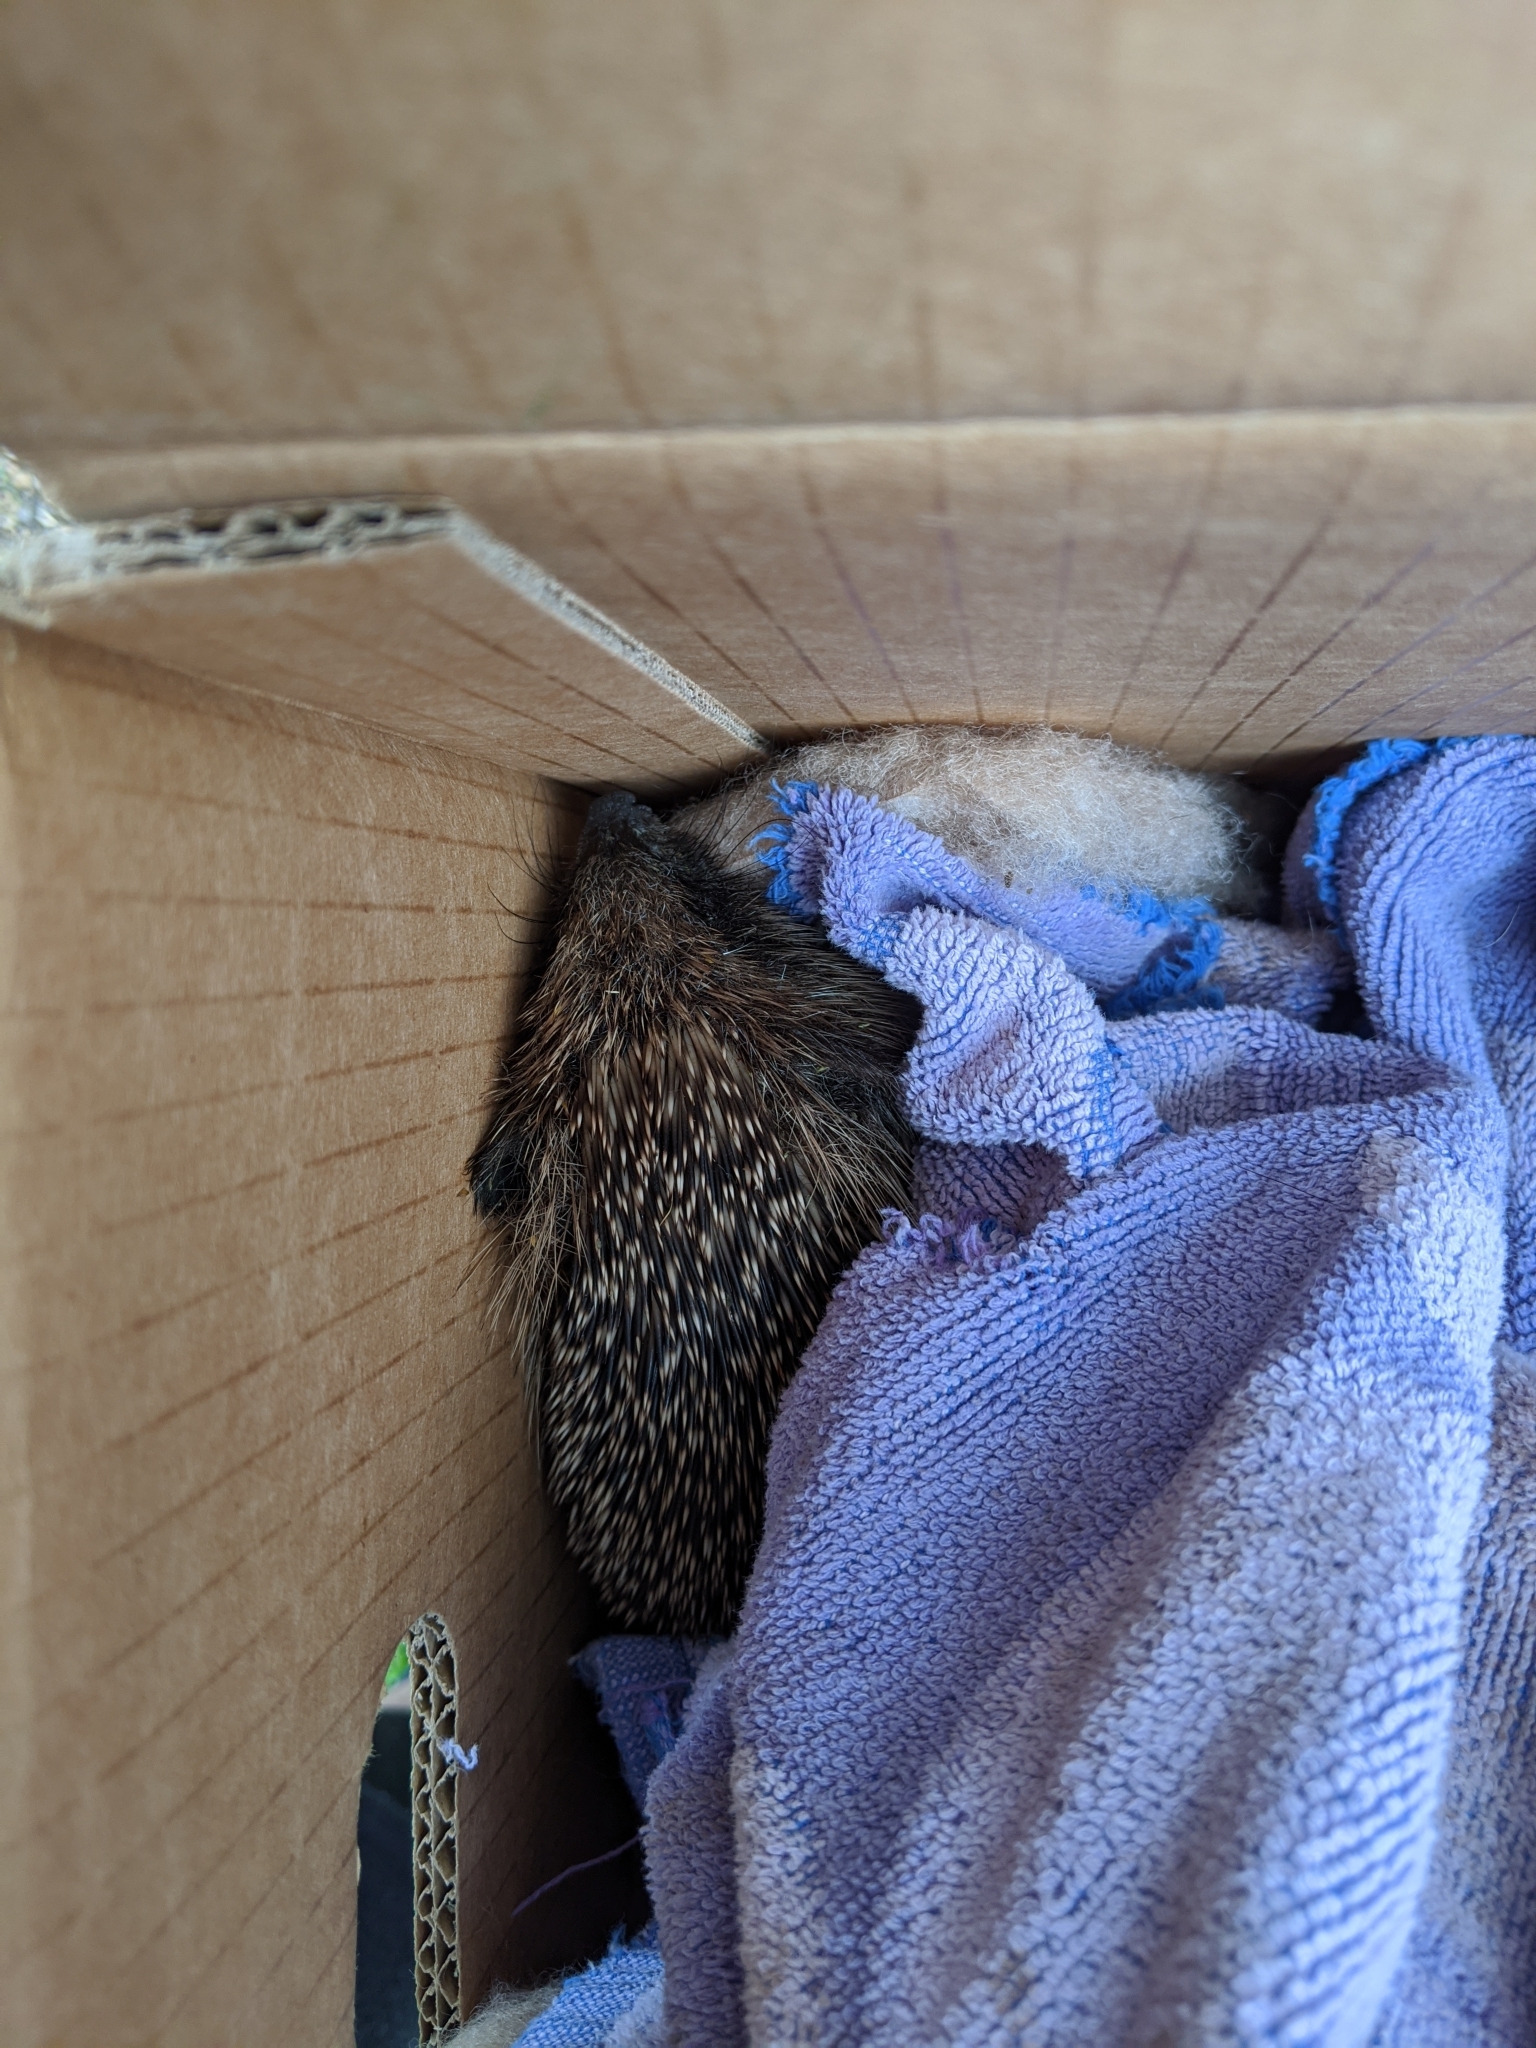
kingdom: Animalia
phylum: Chordata
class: Mammalia
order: Erinaceomorpha
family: Erinaceidae
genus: Erinaceus
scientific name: Erinaceus europaeus
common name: West european hedgehog
